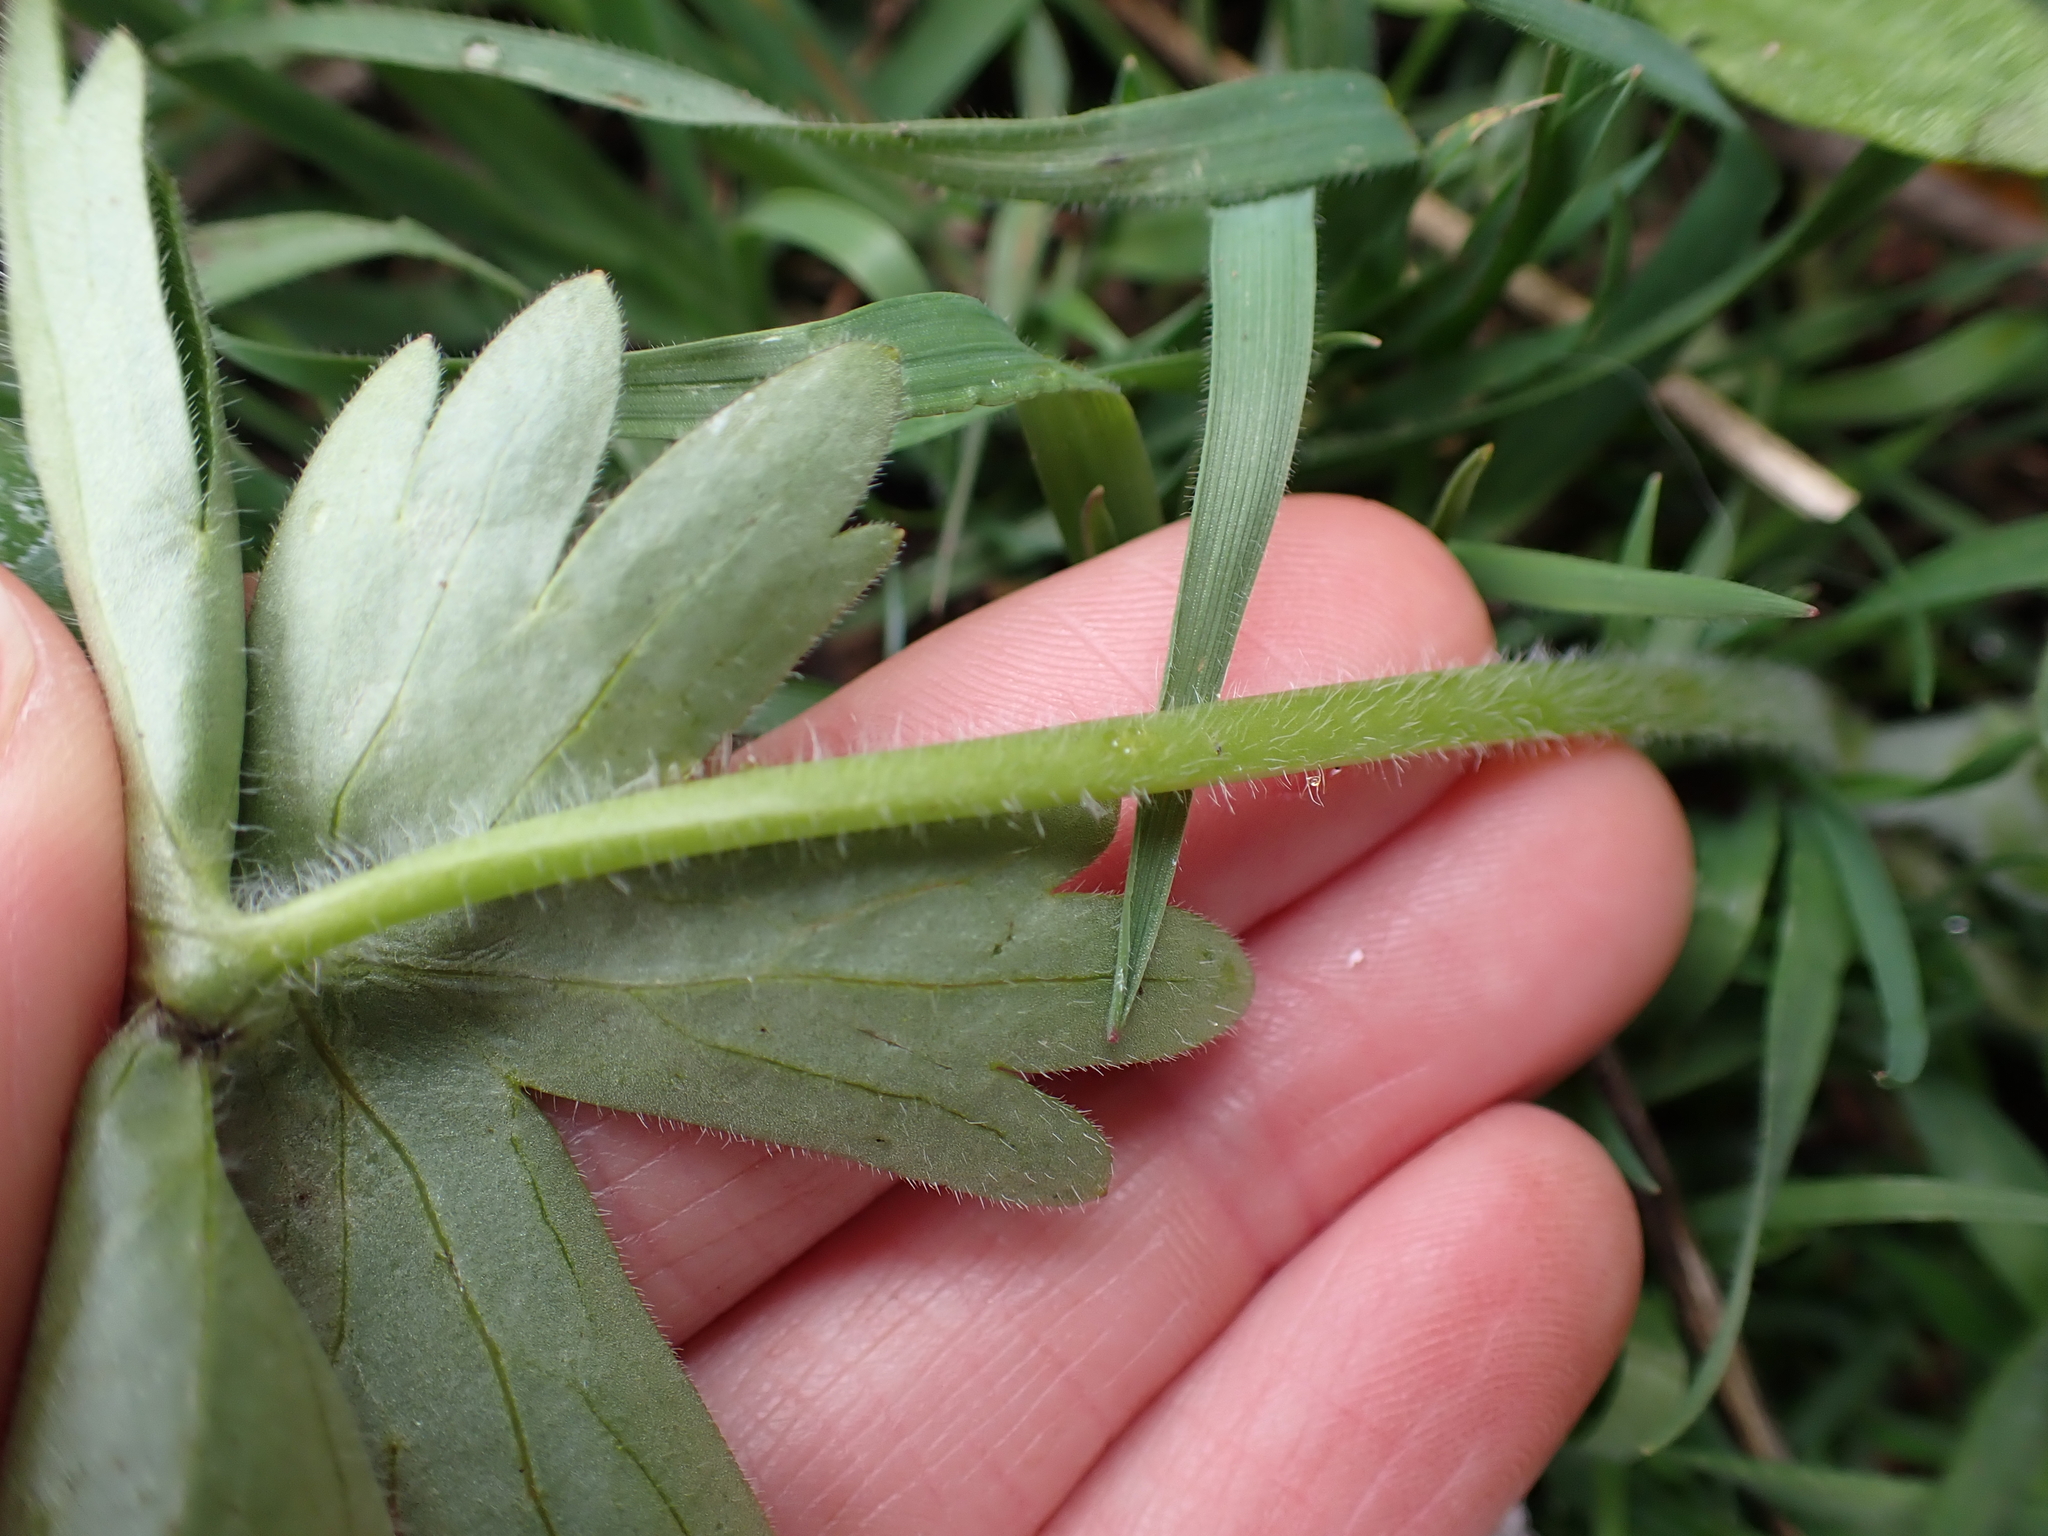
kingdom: Plantae
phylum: Tracheophyta
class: Magnoliopsida
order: Ranunculales
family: Ranunculaceae
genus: Delphinium
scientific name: Delphinium menziesii
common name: Menzies's larkspur
